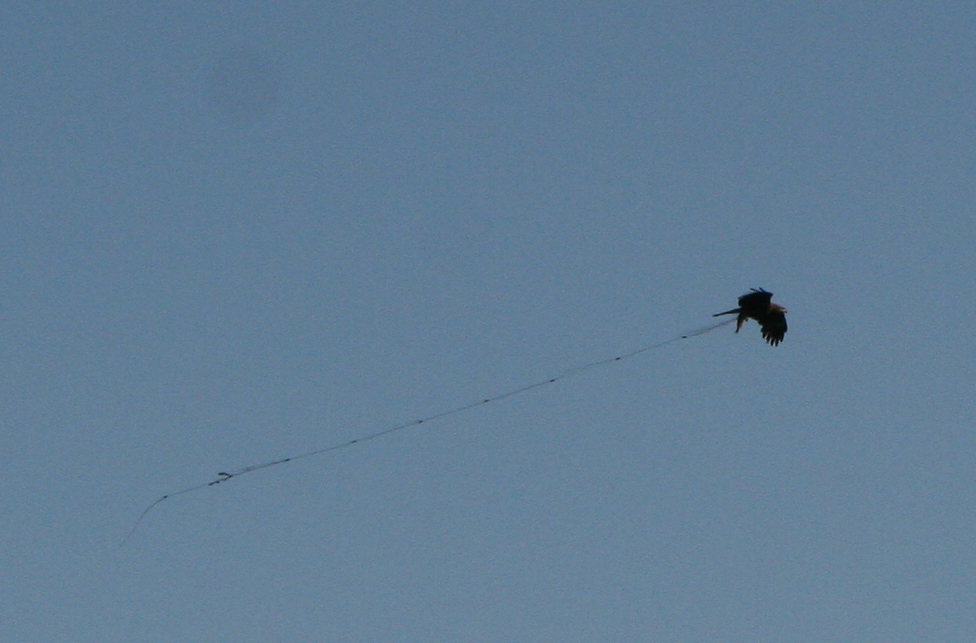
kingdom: Animalia
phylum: Chordata
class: Aves
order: Accipitriformes
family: Accipitridae
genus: Milvus
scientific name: Milvus migrans
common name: Black kite
